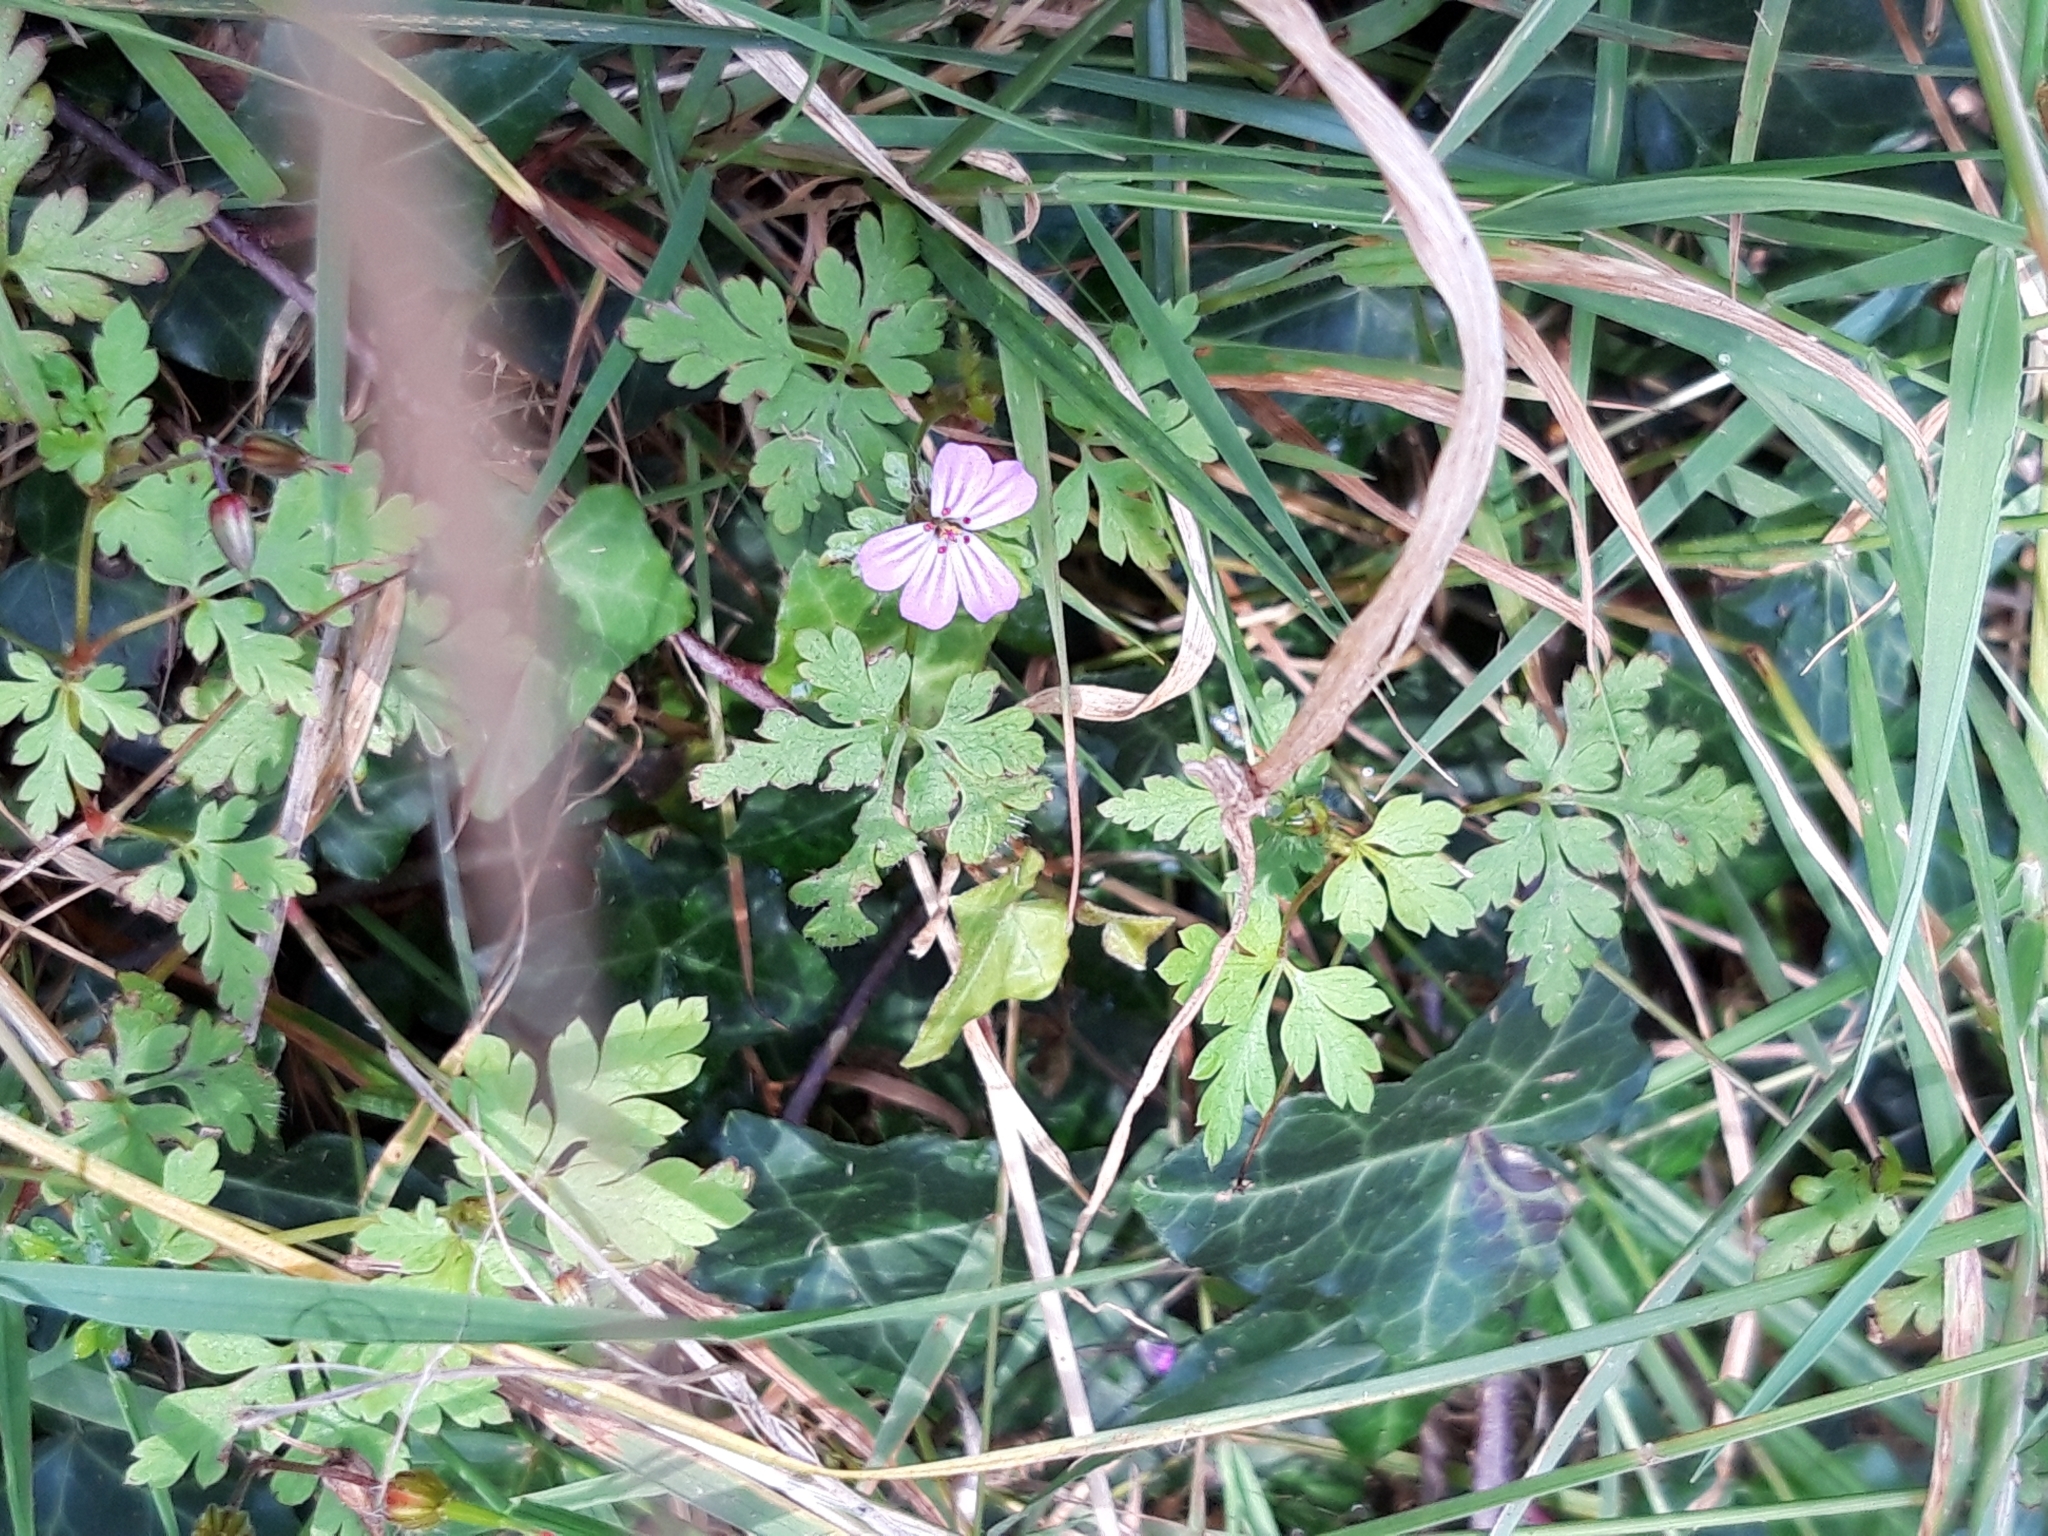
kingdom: Plantae
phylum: Tracheophyta
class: Magnoliopsida
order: Geraniales
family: Geraniaceae
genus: Geranium
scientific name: Geranium robertianum
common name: Herb-robert
